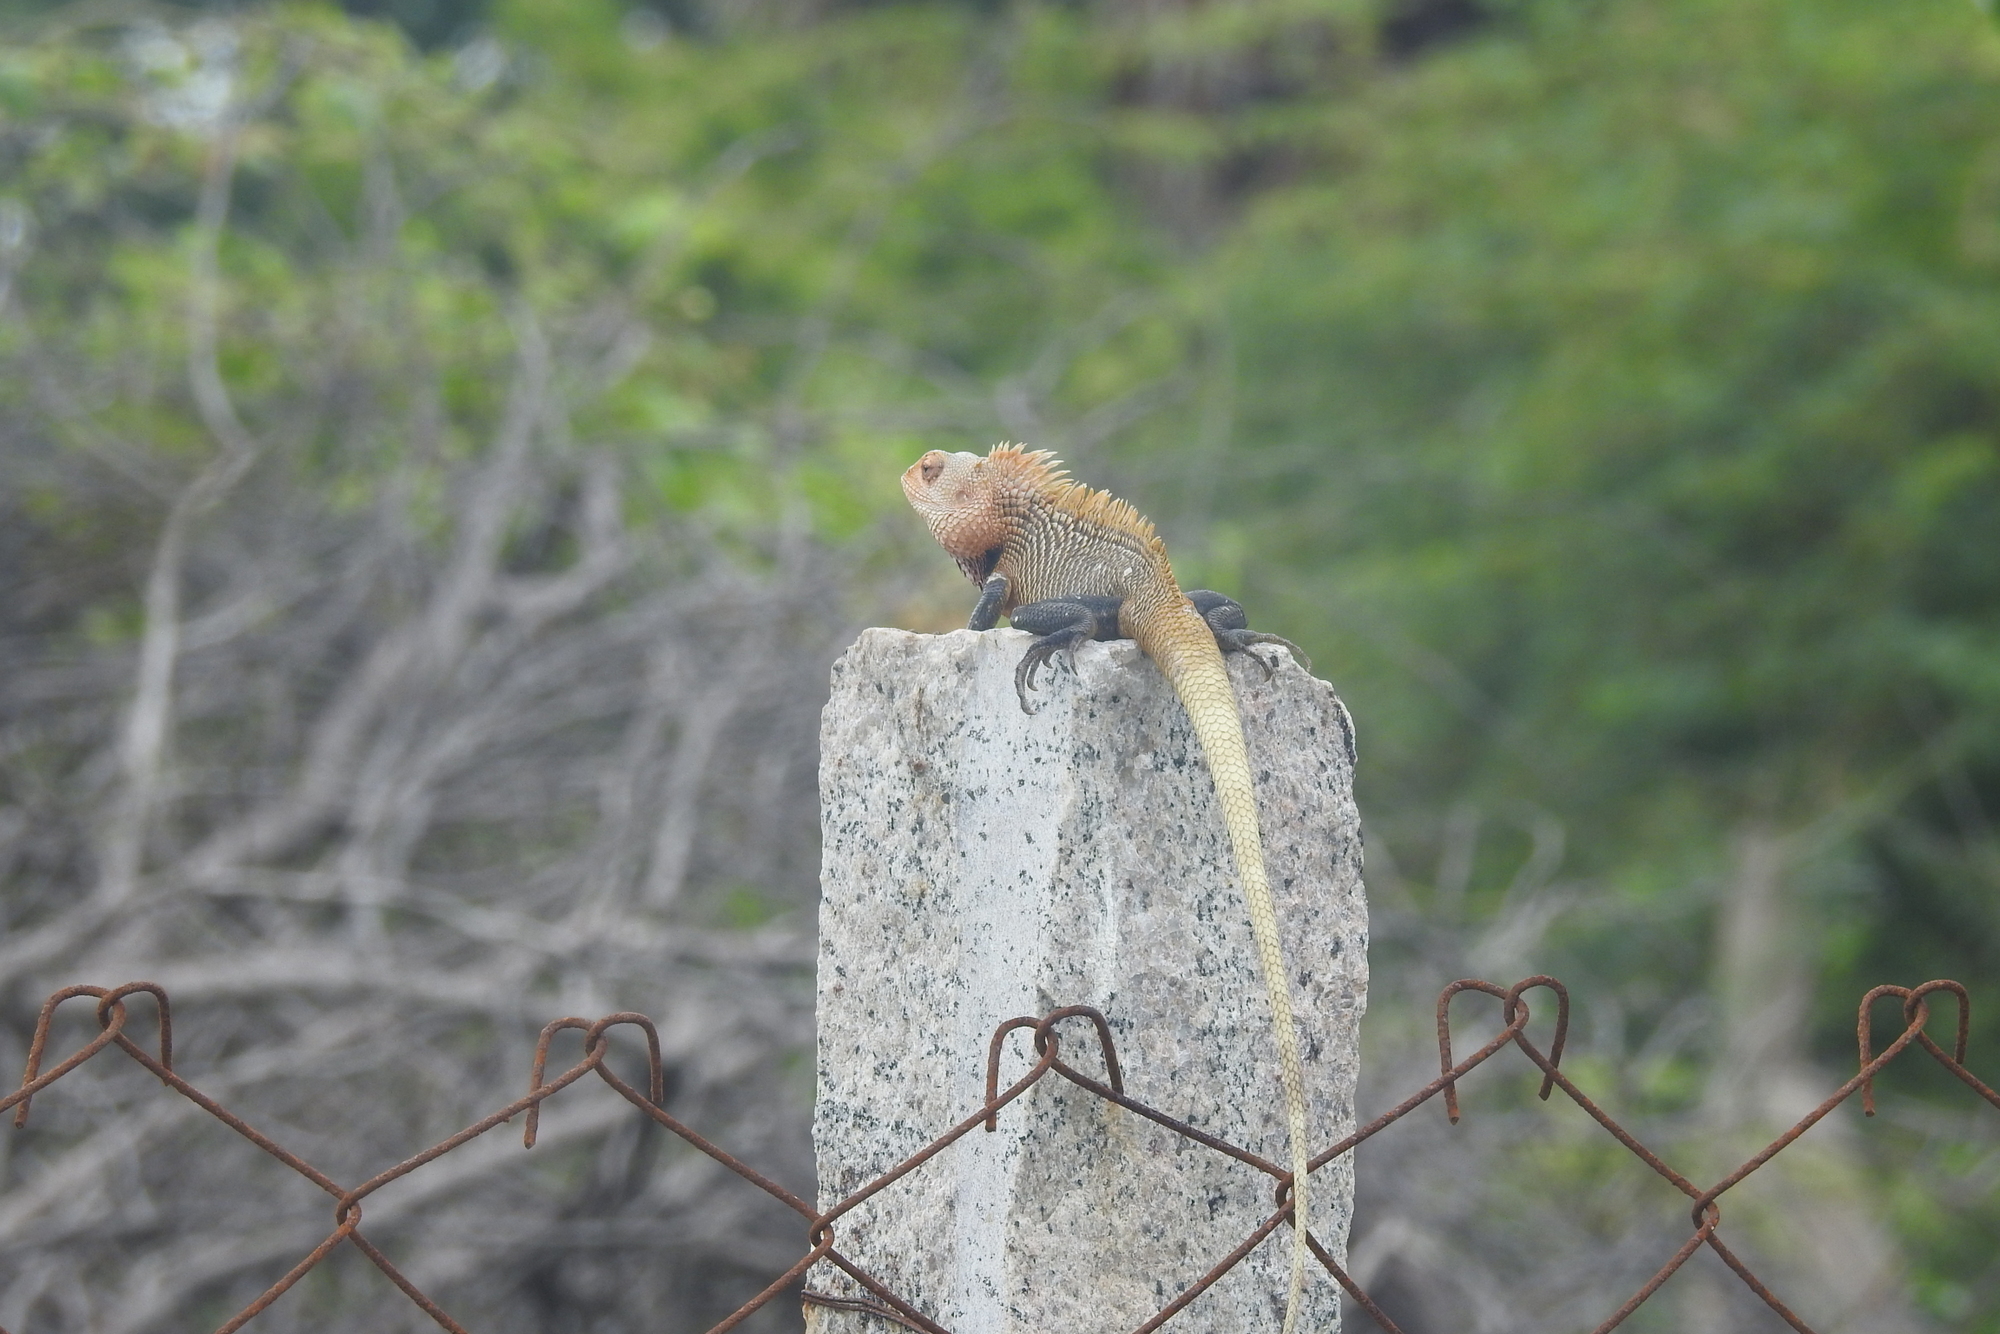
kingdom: Animalia
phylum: Chordata
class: Squamata
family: Agamidae
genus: Calotes
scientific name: Calotes versicolor
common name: Oriental garden lizard
